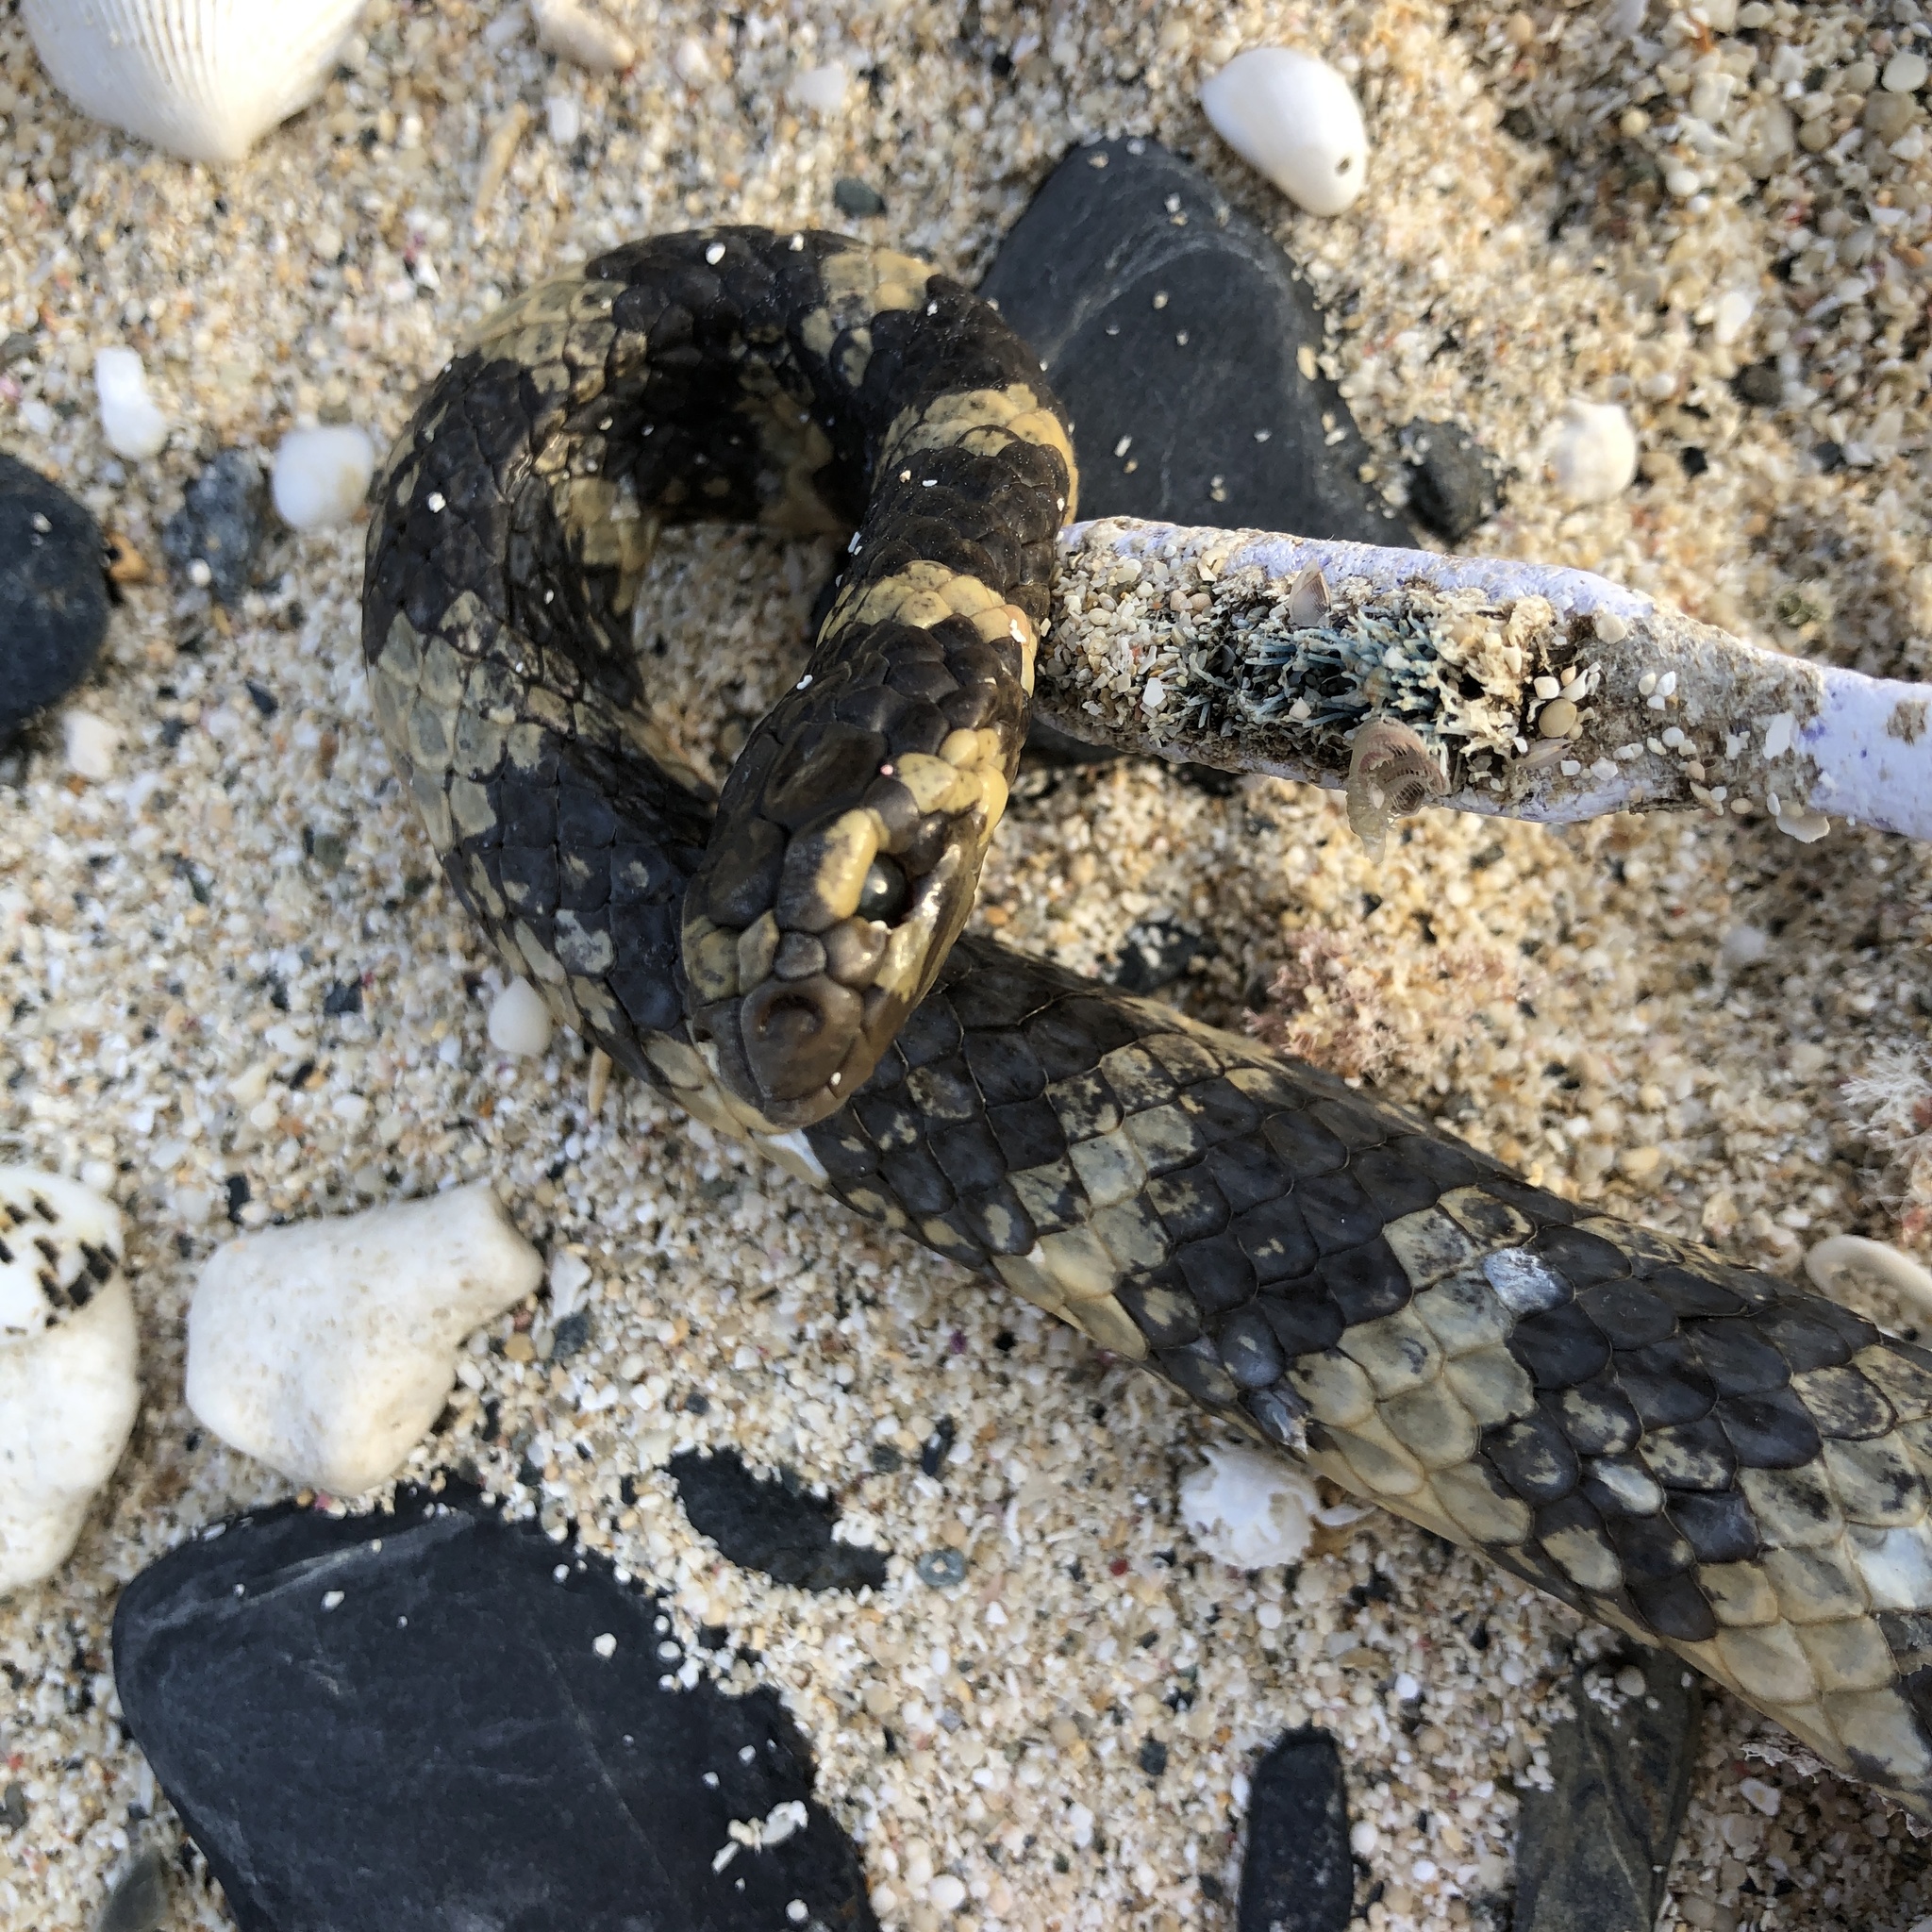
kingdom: Animalia
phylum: Chordata
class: Squamata
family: Elapidae
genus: Emydocephalus
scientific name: Emydocephalus ijimae
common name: Turtlehead sea snake
